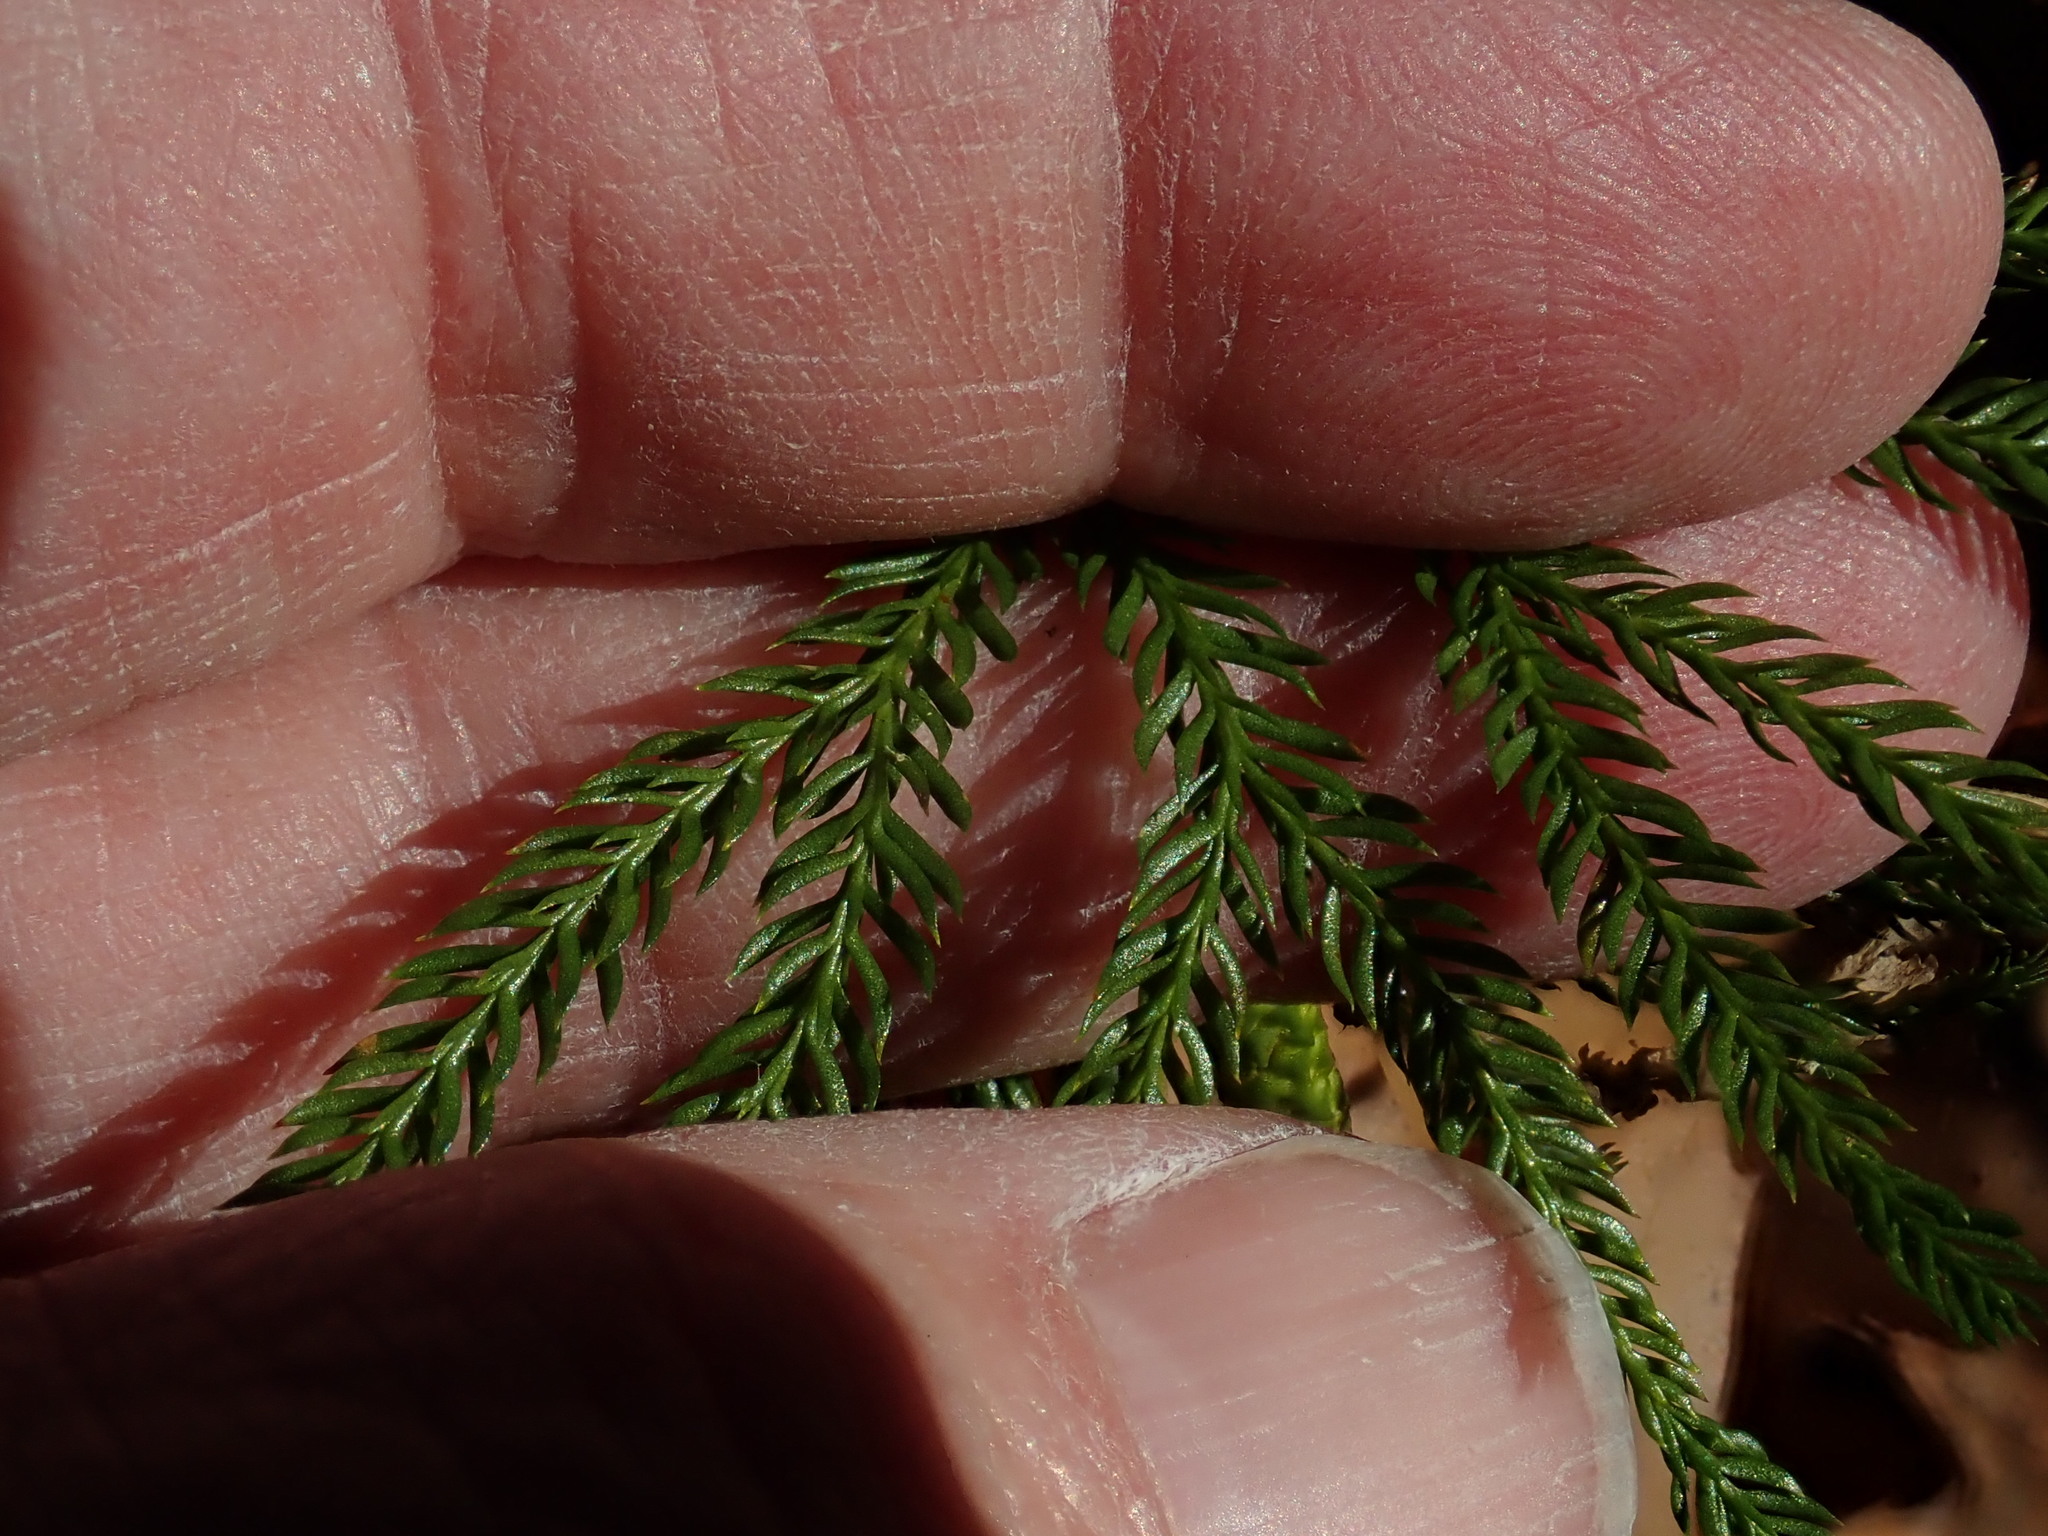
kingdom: Plantae
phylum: Tracheophyta
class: Lycopodiopsida
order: Lycopodiales
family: Lycopodiaceae
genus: Dendrolycopodium
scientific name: Dendrolycopodium obscurum
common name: Common ground-pine
